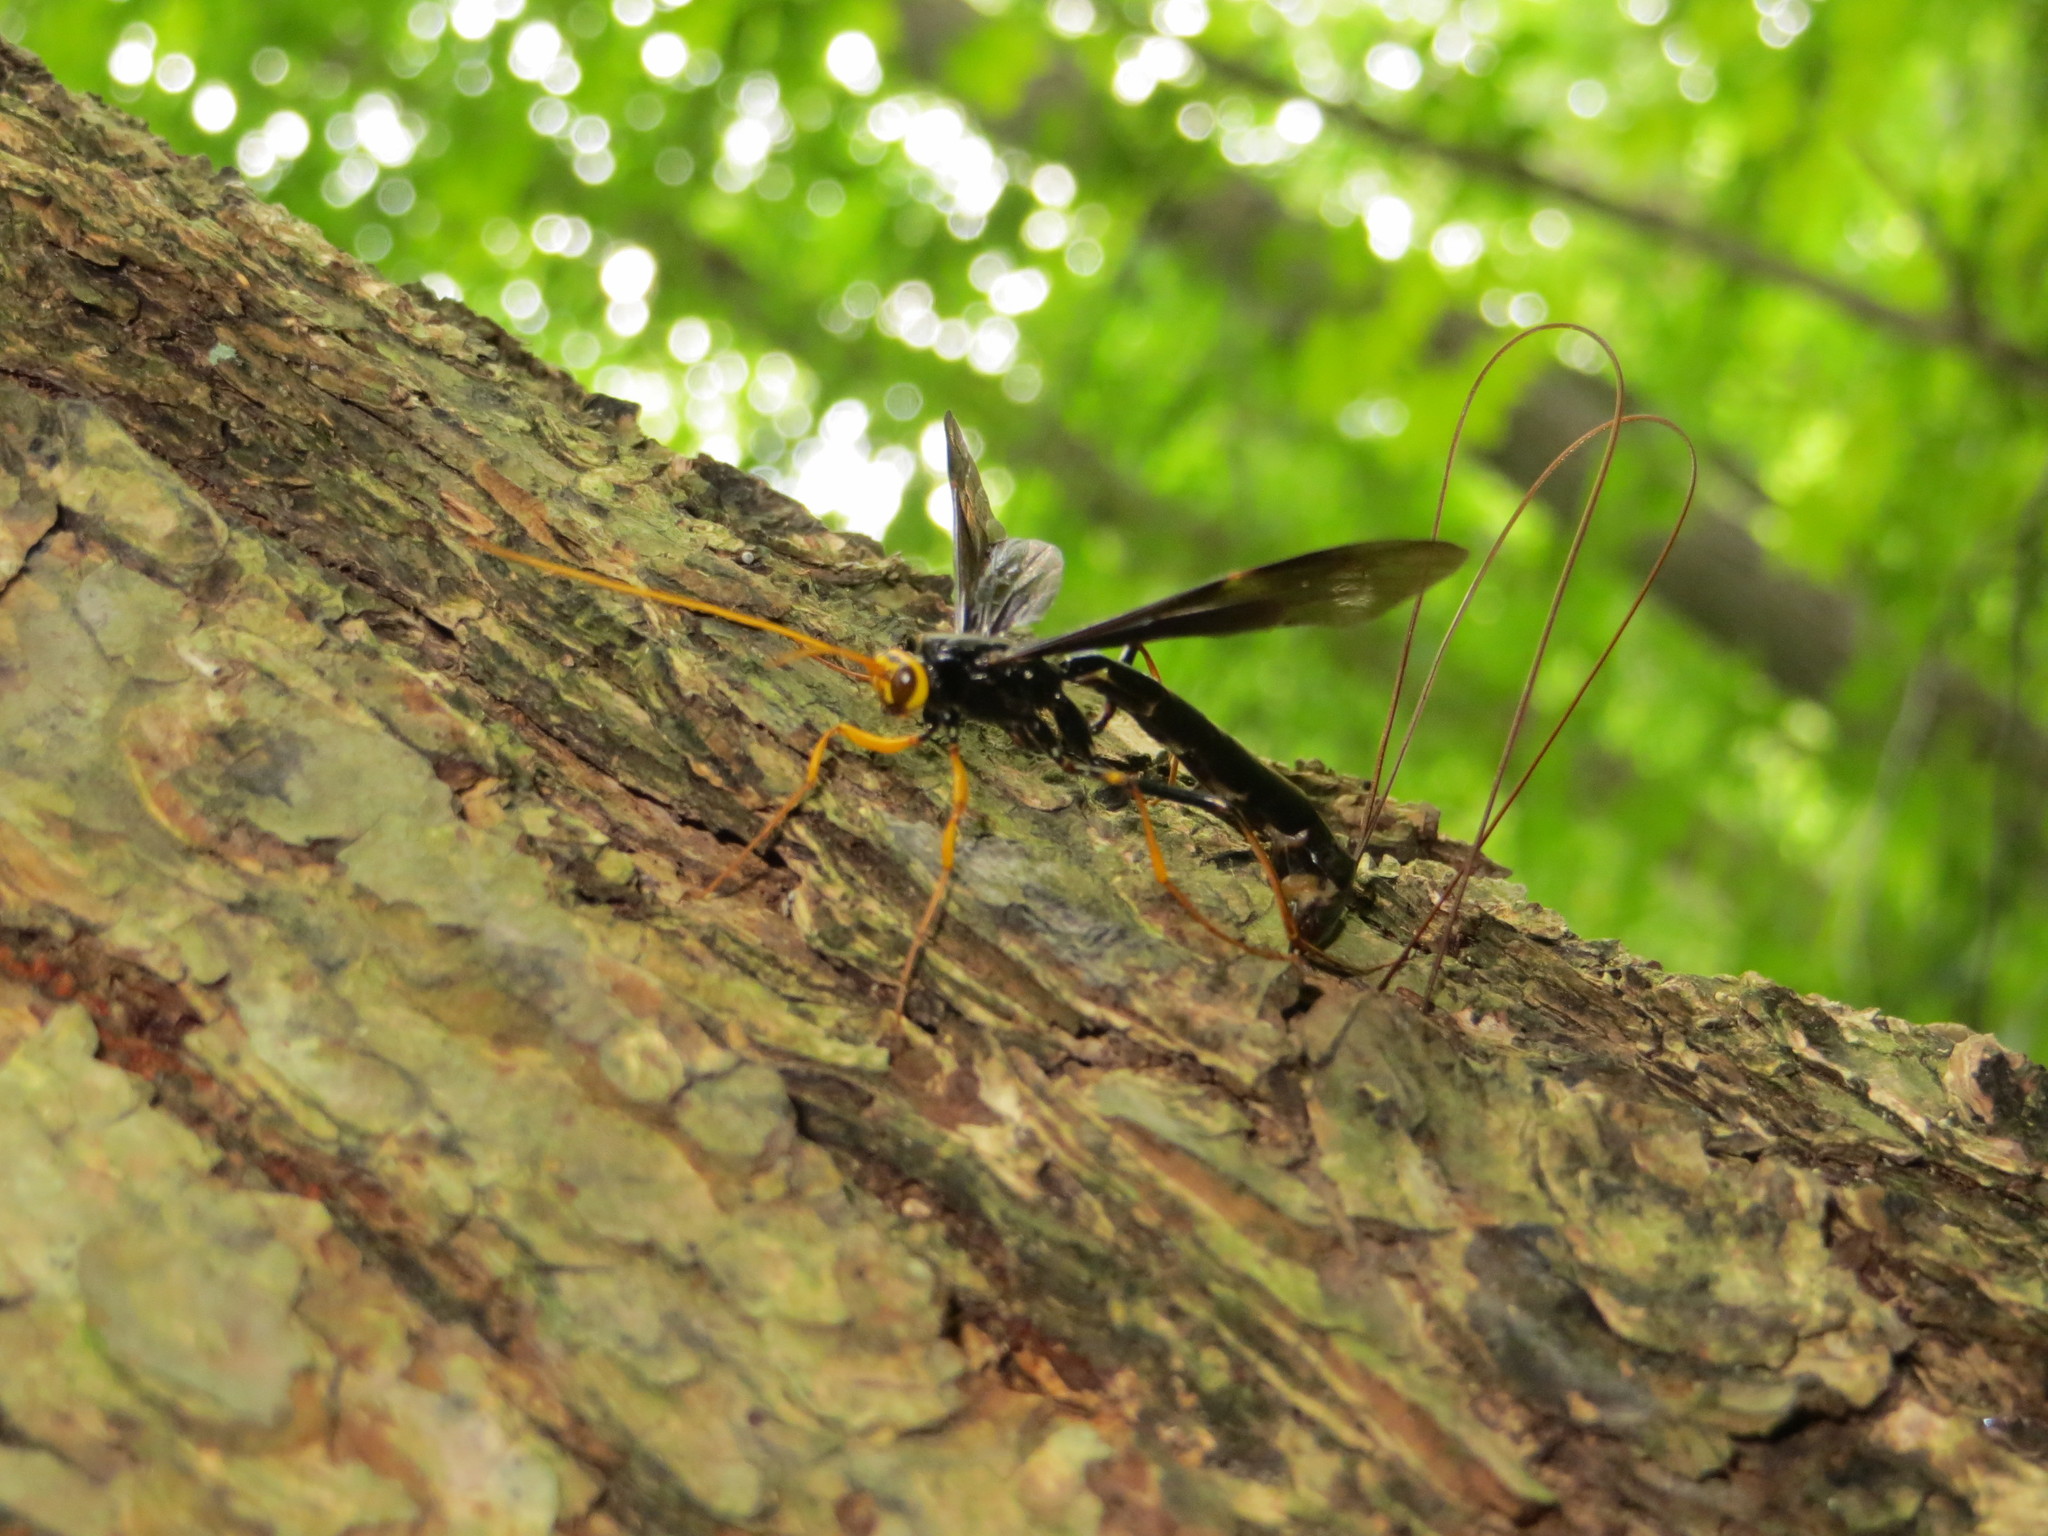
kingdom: Animalia
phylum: Arthropoda
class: Insecta
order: Hymenoptera
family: Ichneumonidae
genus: Megarhyssa
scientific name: Megarhyssa atrata
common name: Black giant ichneumonid wasp
